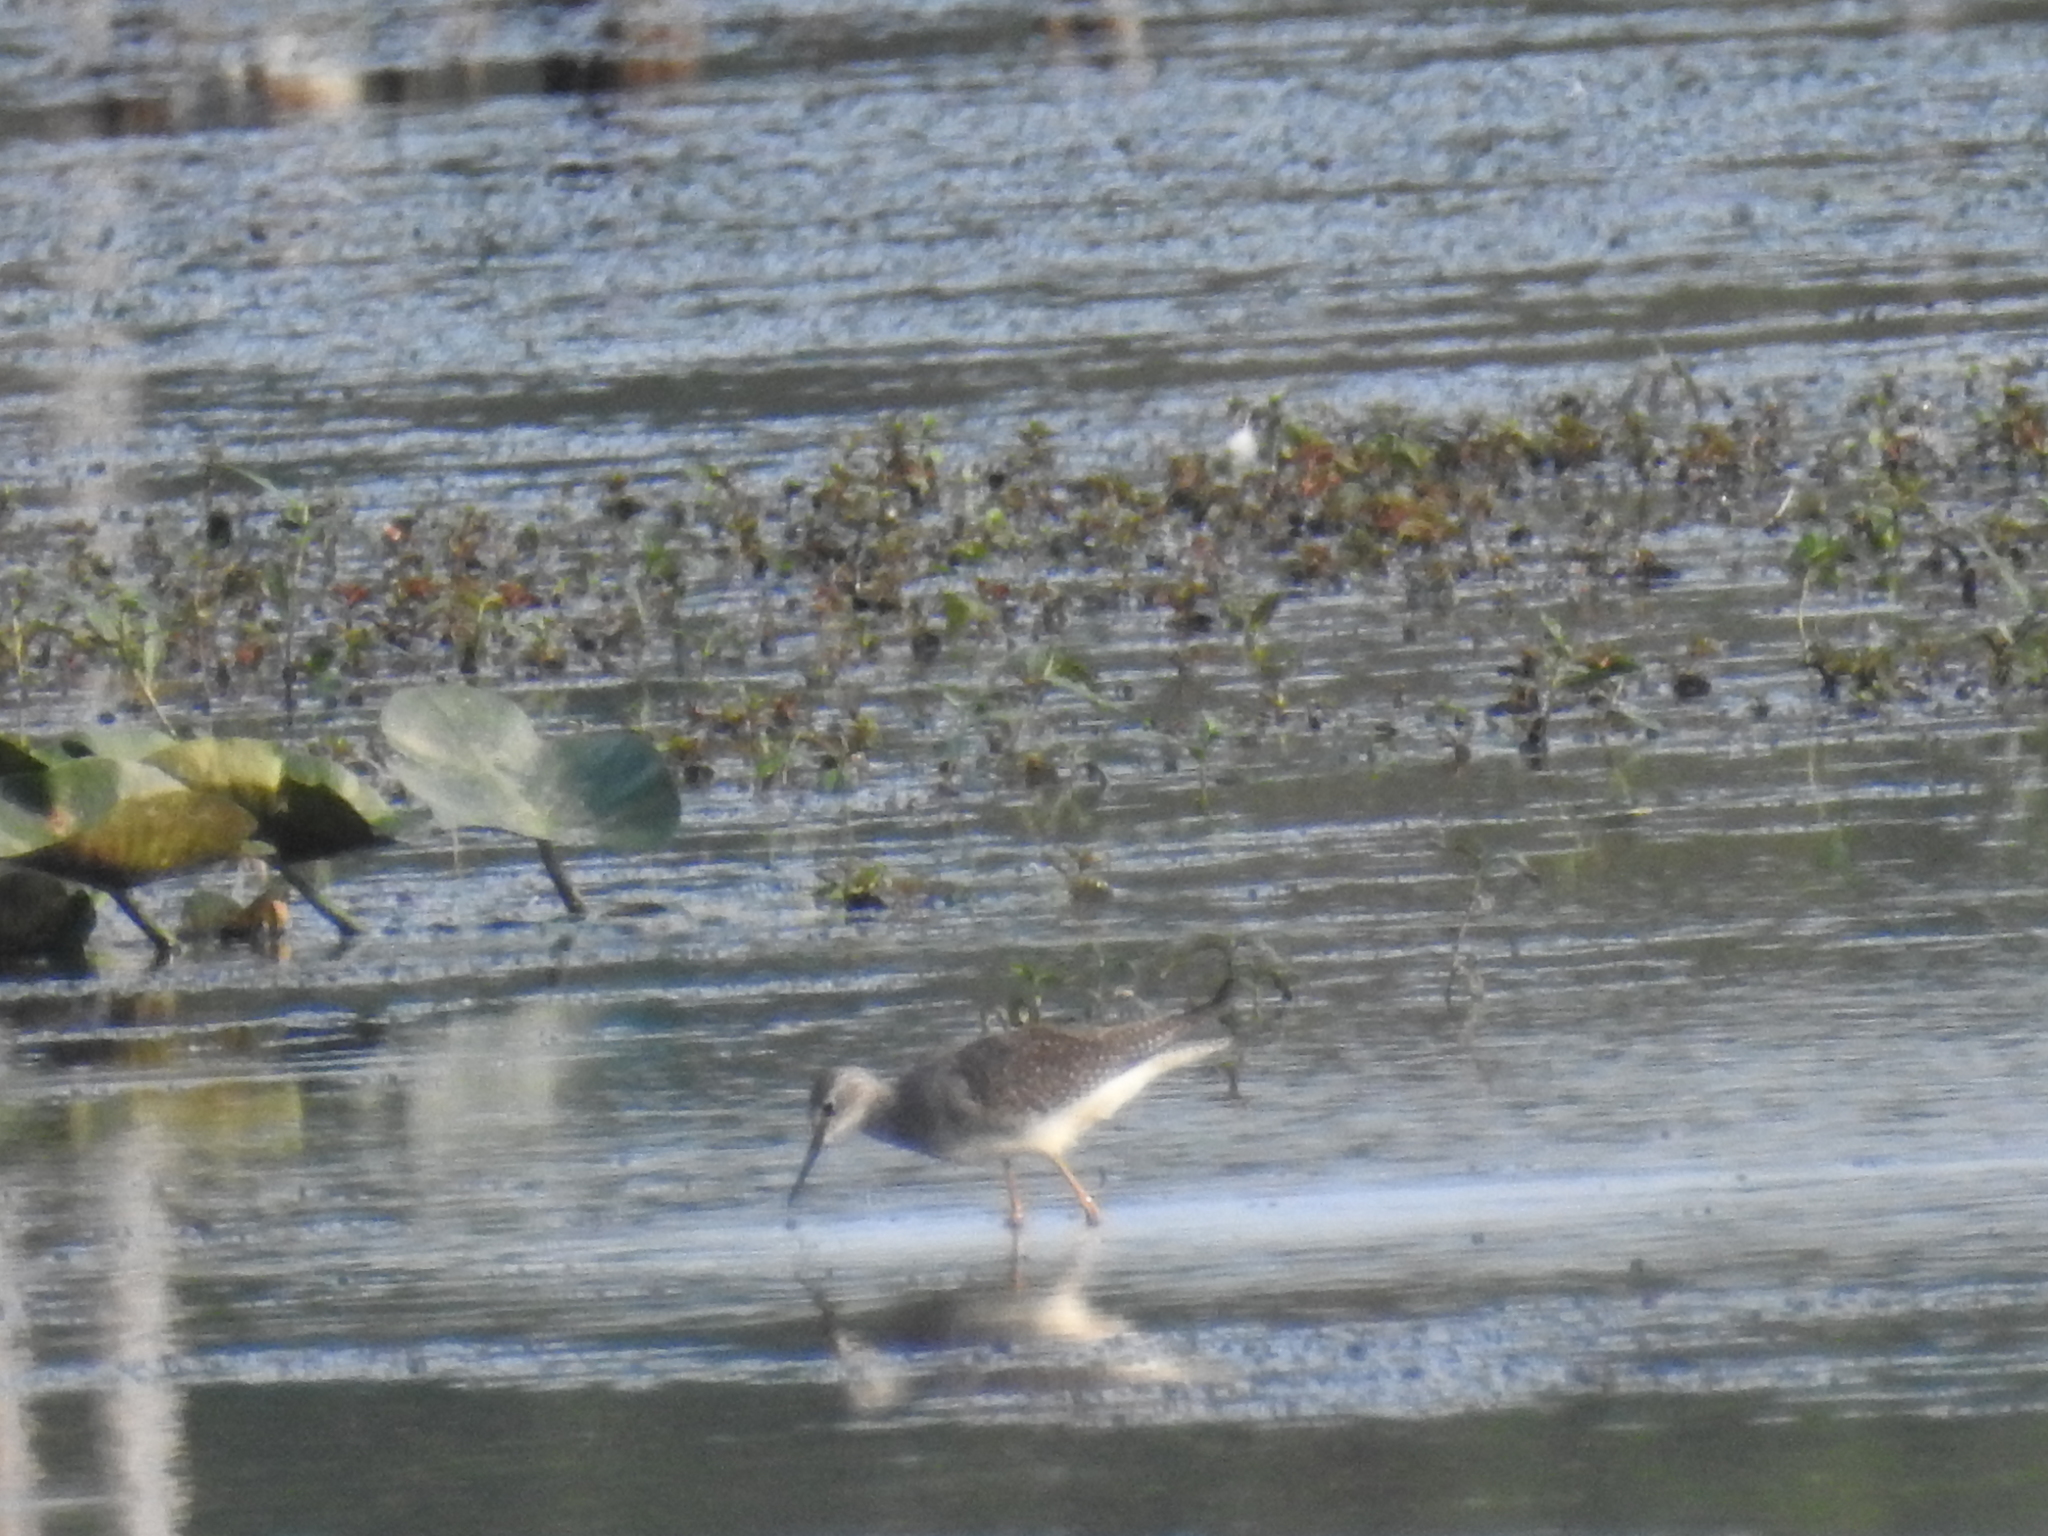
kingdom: Animalia
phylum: Chordata
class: Aves
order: Charadriiformes
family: Scolopacidae
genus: Tringa
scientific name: Tringa flavipes
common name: Lesser yellowlegs
